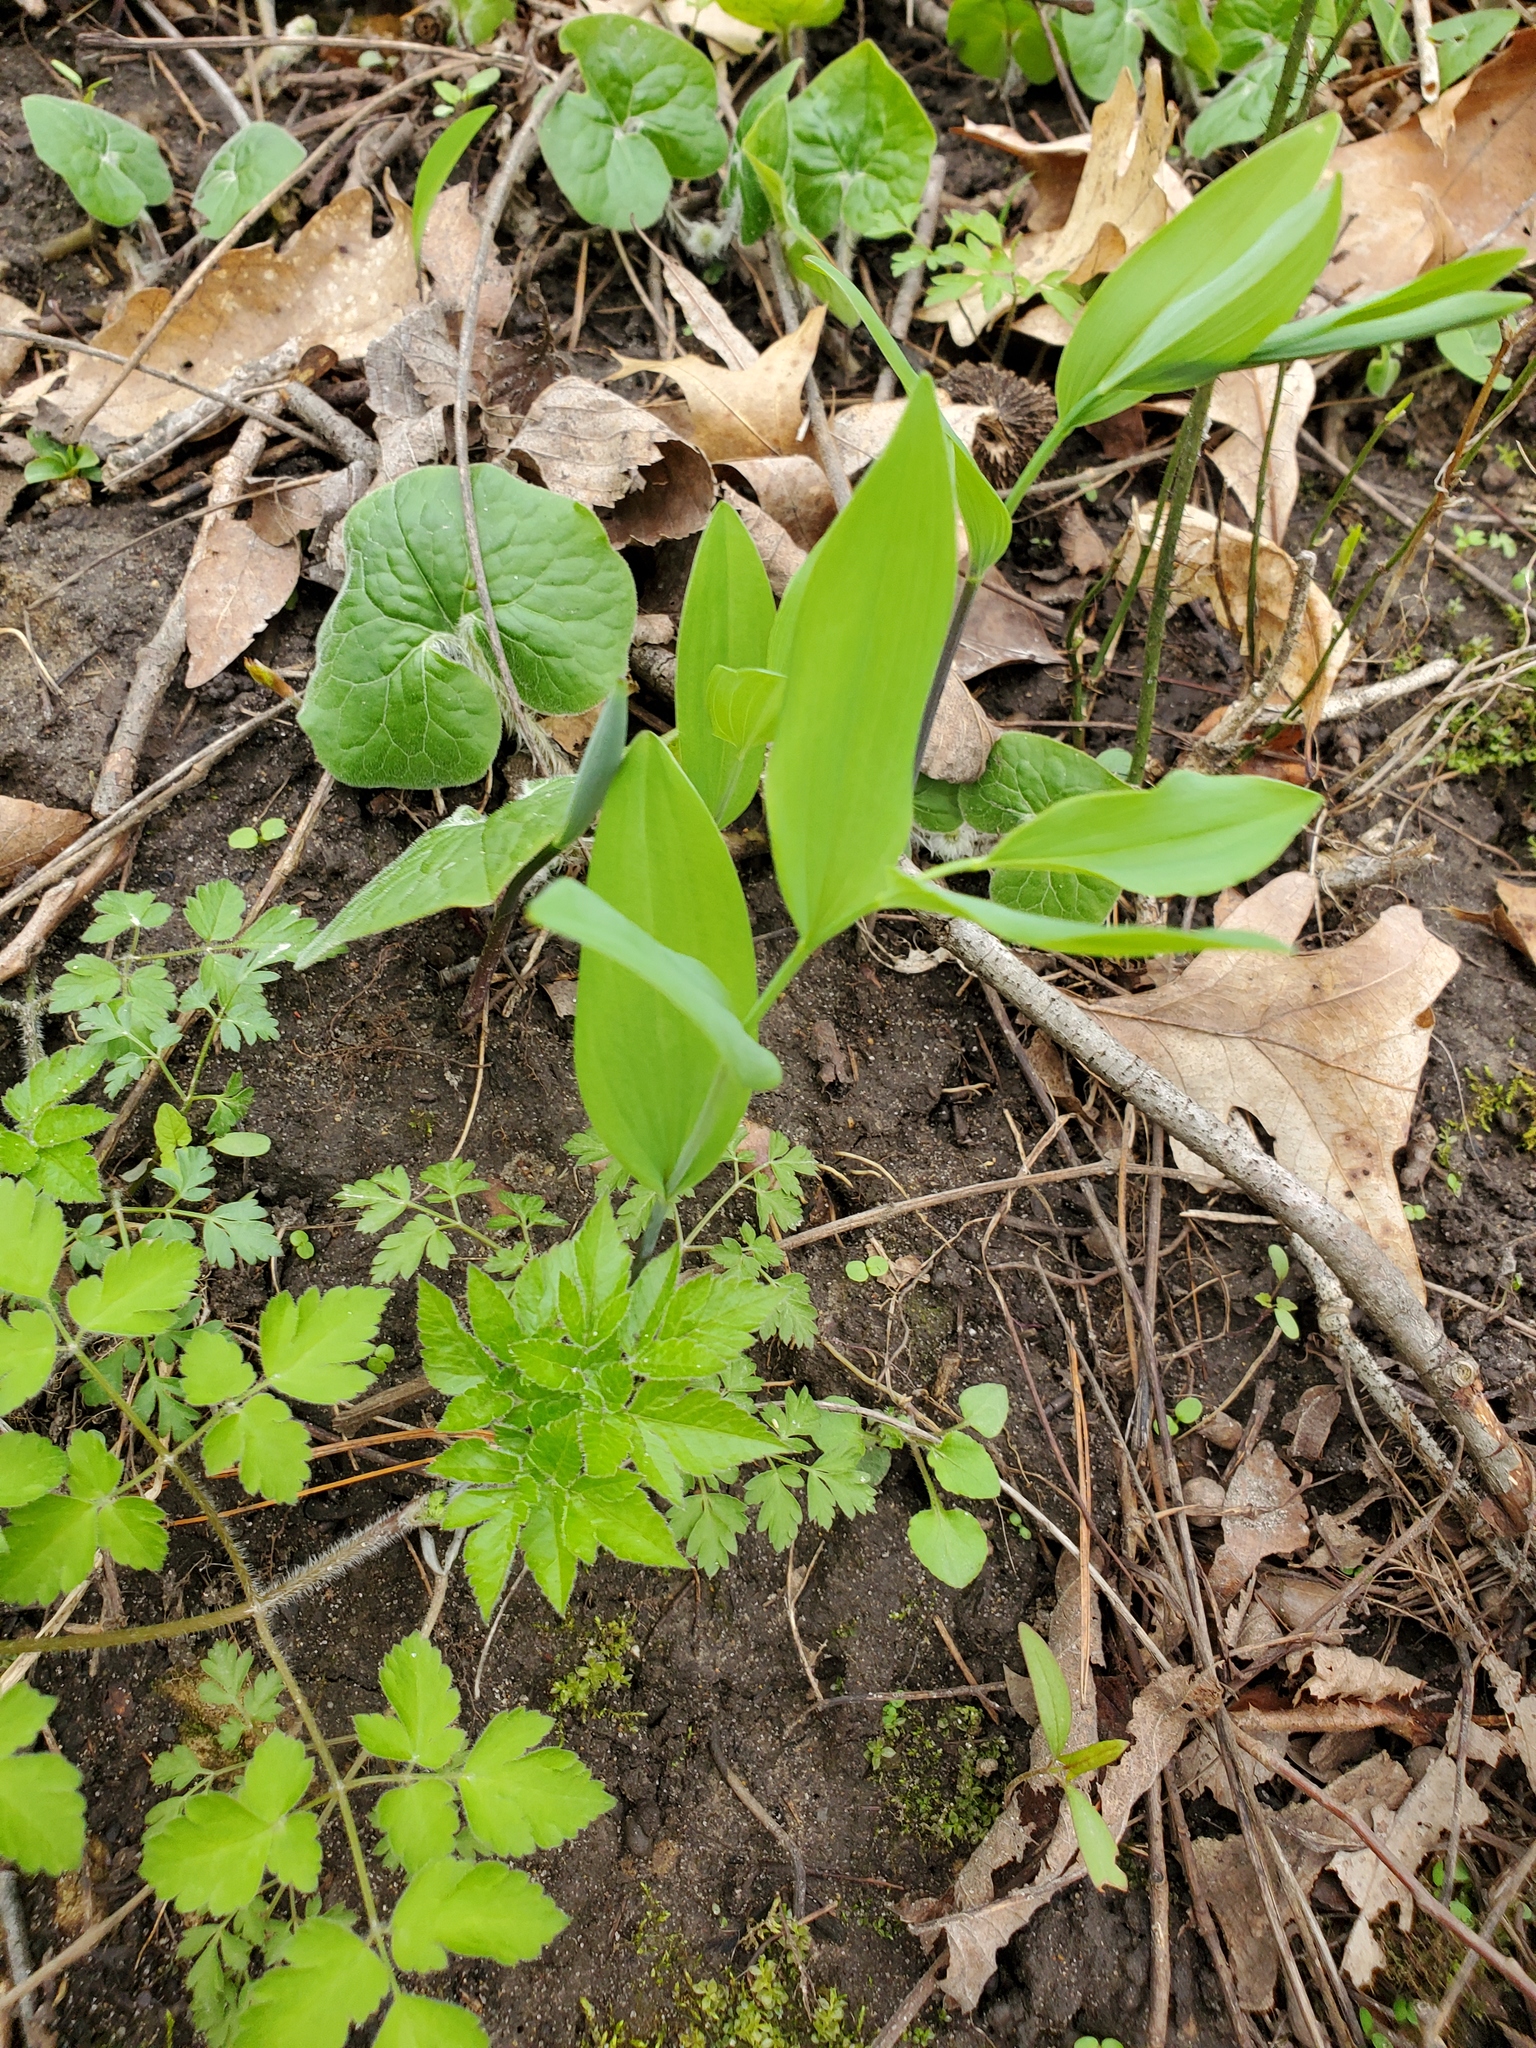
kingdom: Plantae
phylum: Tracheophyta
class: Liliopsida
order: Asparagales
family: Asparagaceae
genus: Polygonatum
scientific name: Polygonatum biflorum
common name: American solomon's-seal
